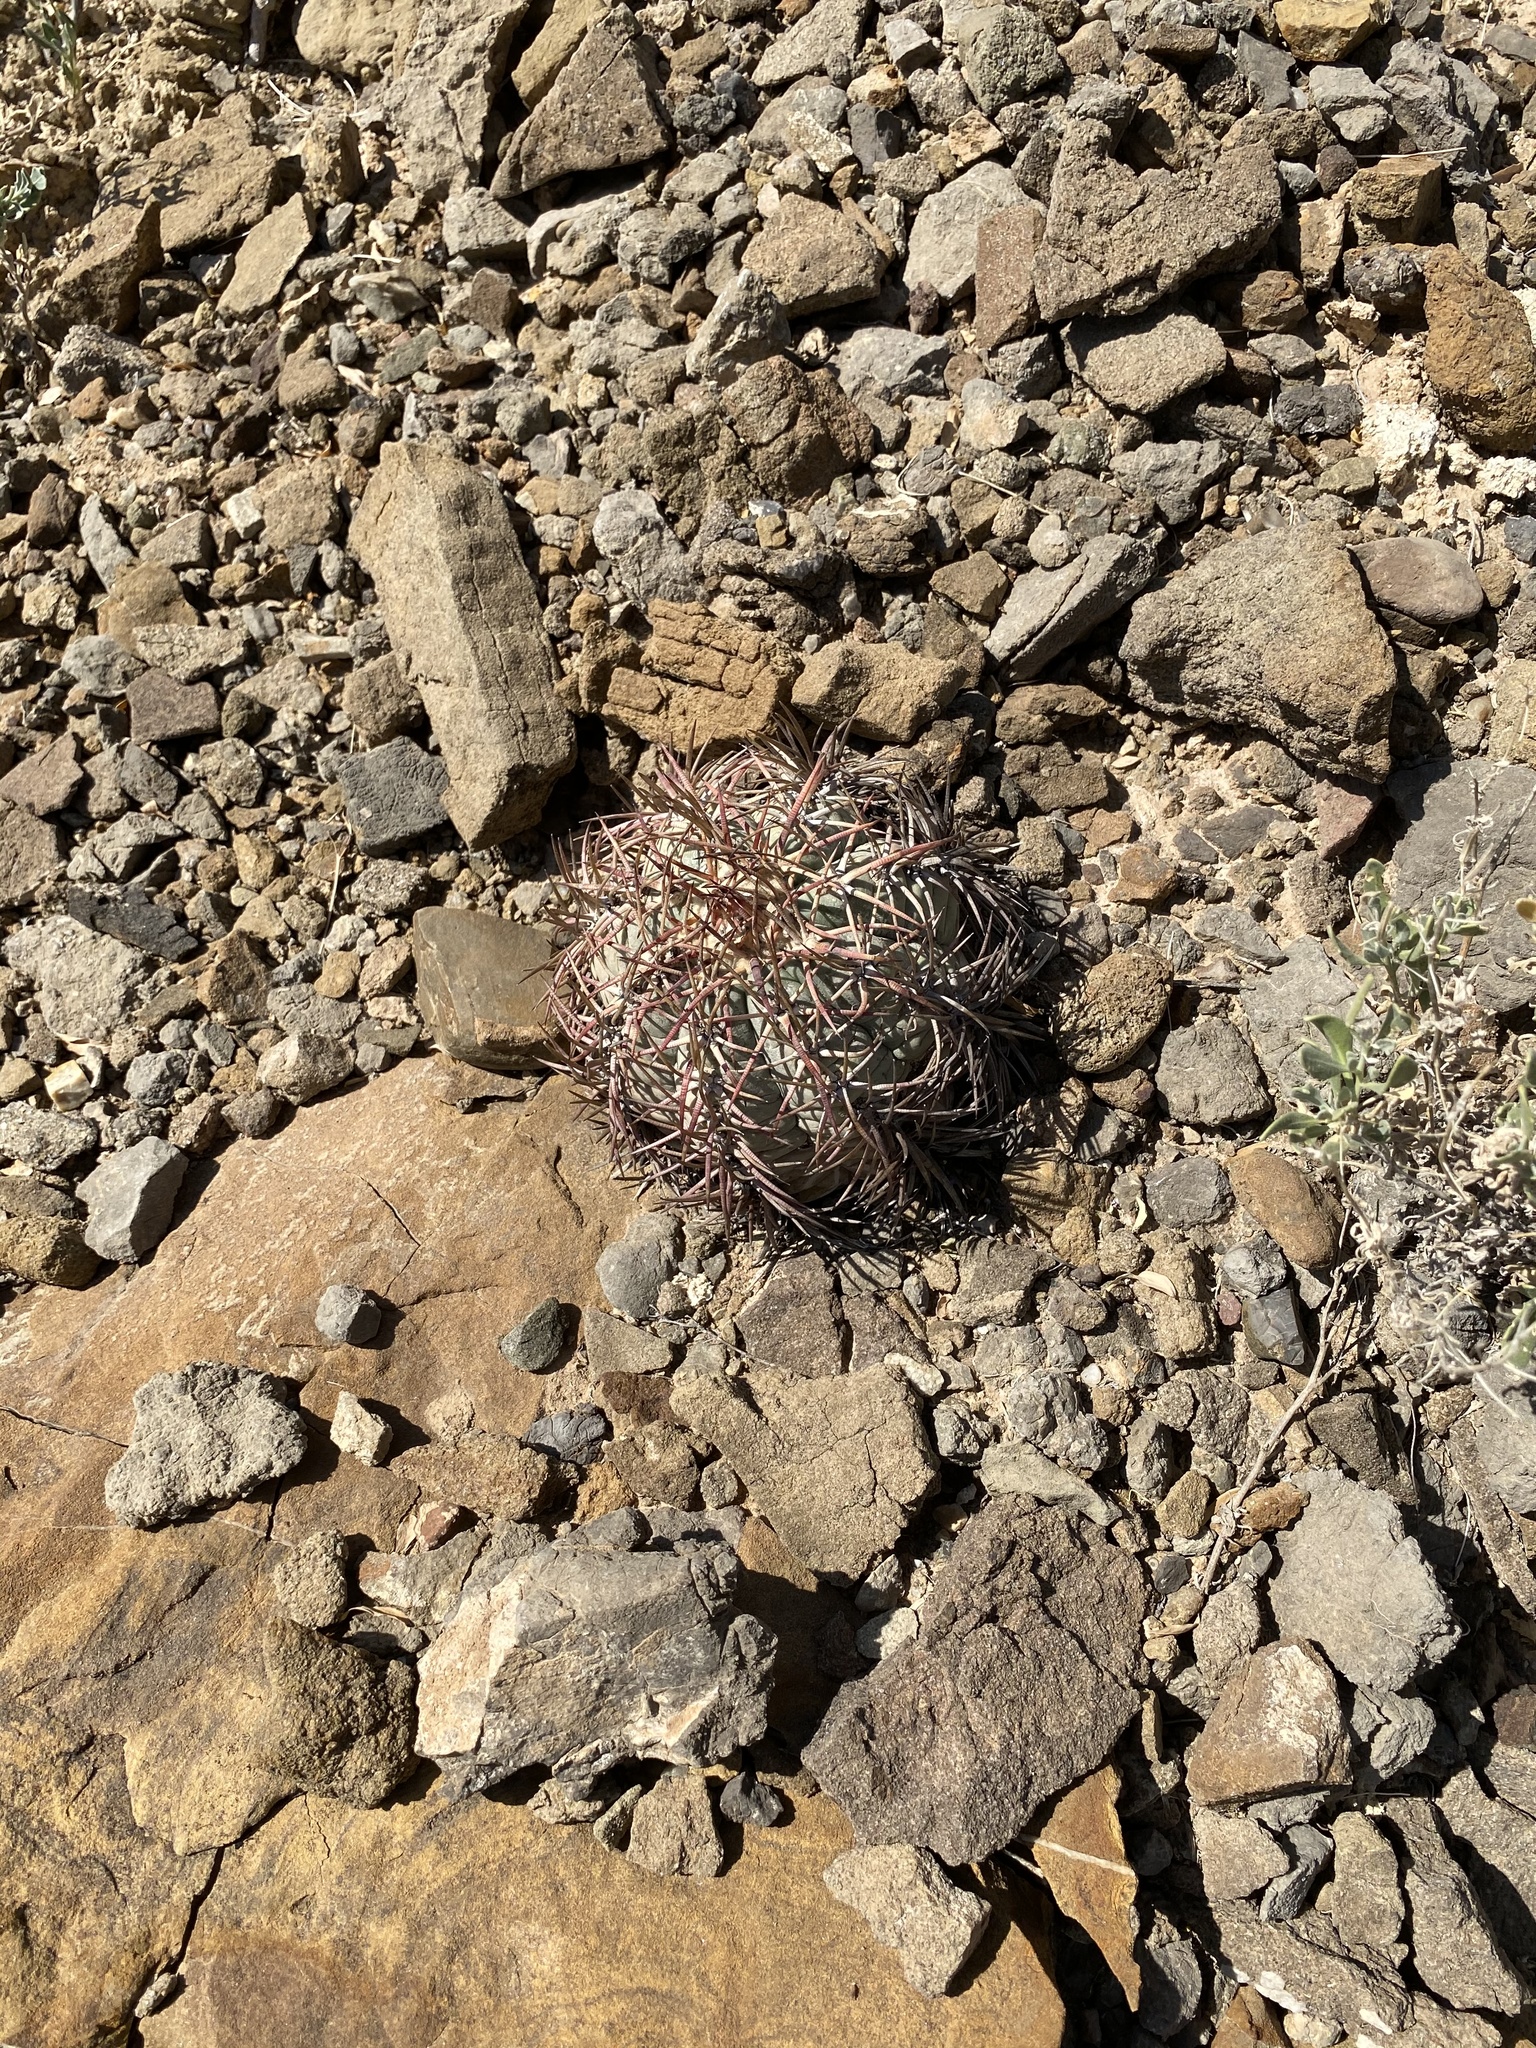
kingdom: Plantae
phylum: Tracheophyta
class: Magnoliopsida
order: Caryophyllales
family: Cactaceae
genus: Echinocactus
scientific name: Echinocactus horizonthalonius
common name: Devilshead
